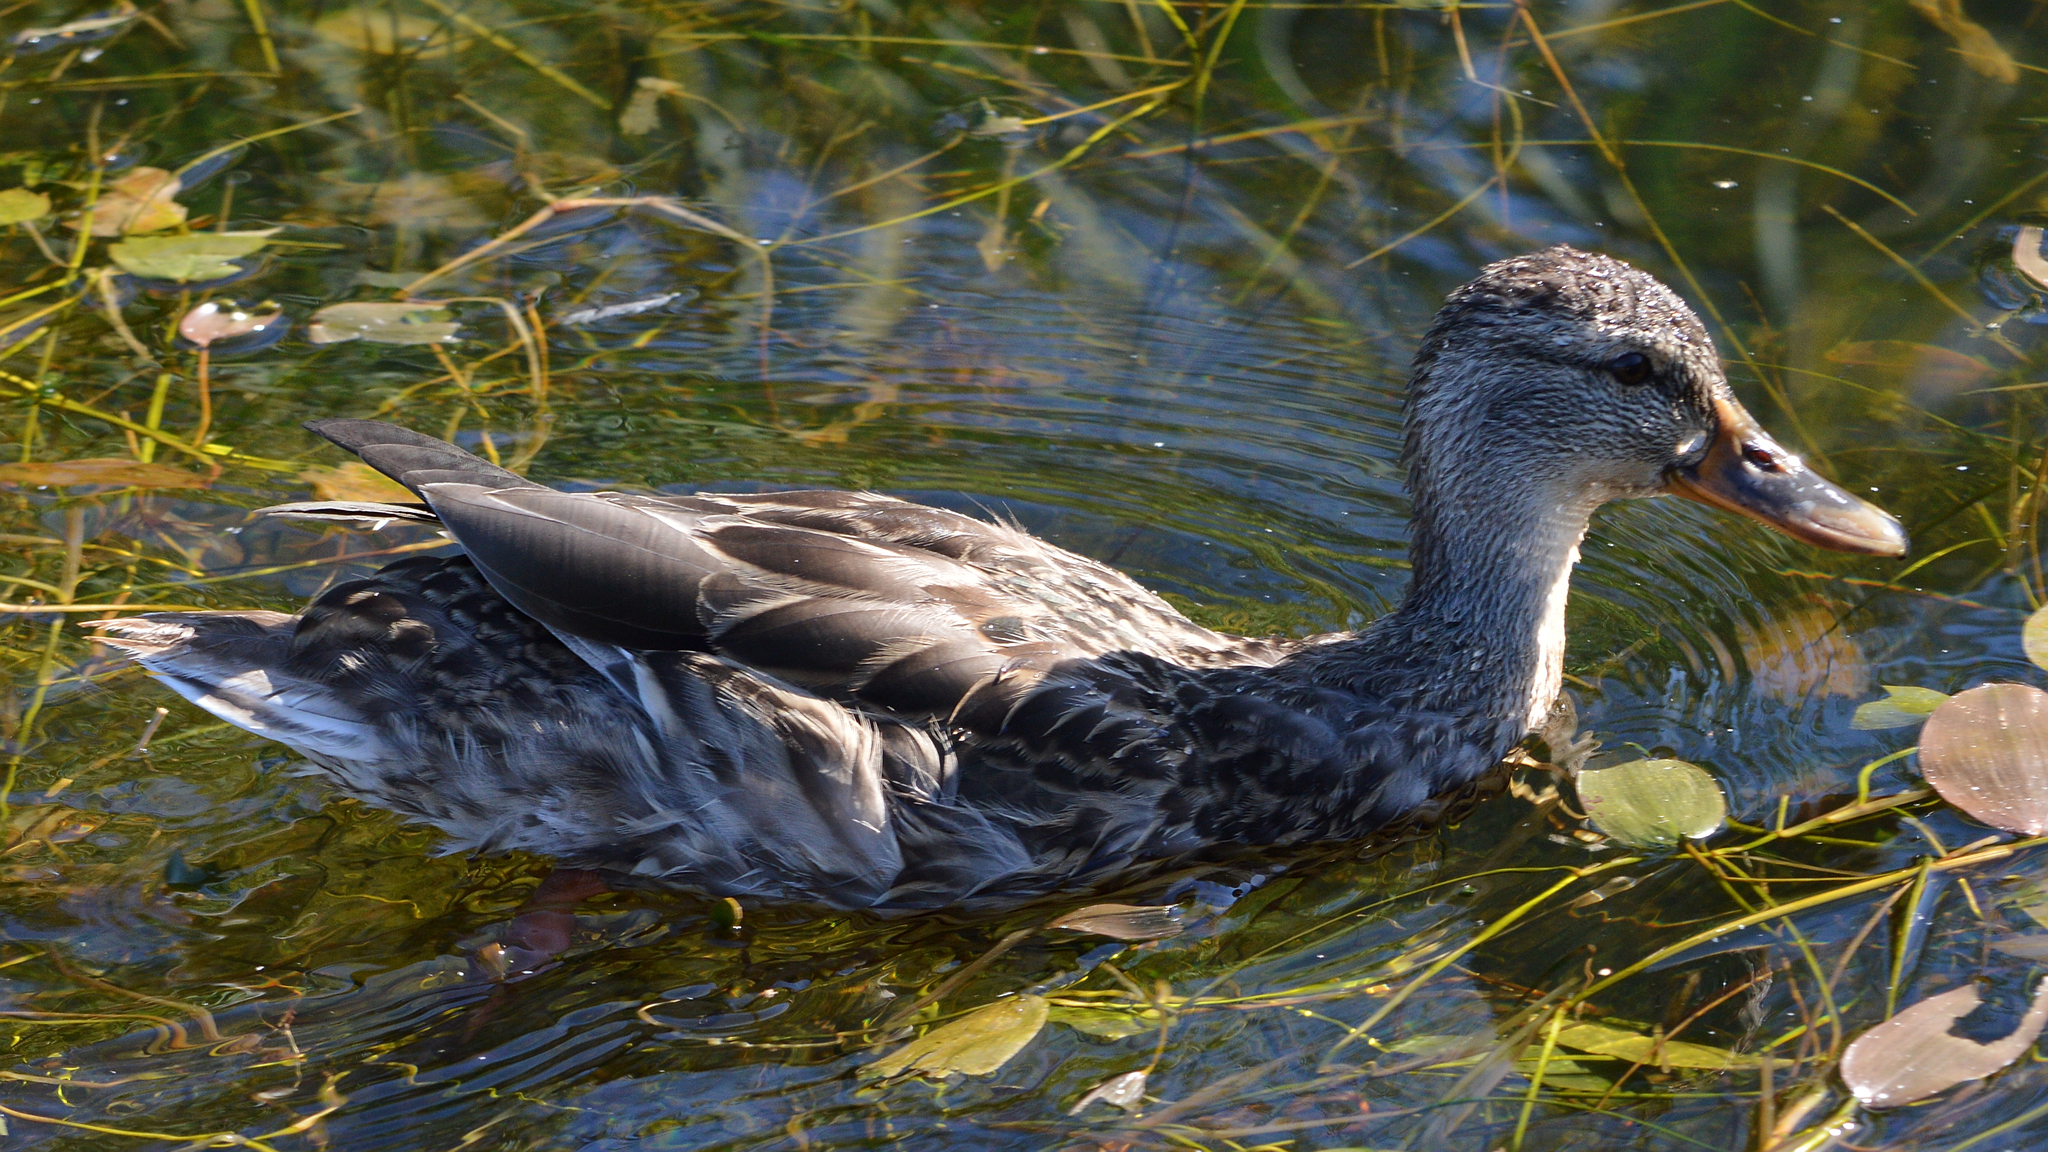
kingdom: Animalia
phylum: Chordata
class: Aves
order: Anseriformes
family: Anatidae
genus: Anas
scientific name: Anas platyrhynchos
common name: Mallard
